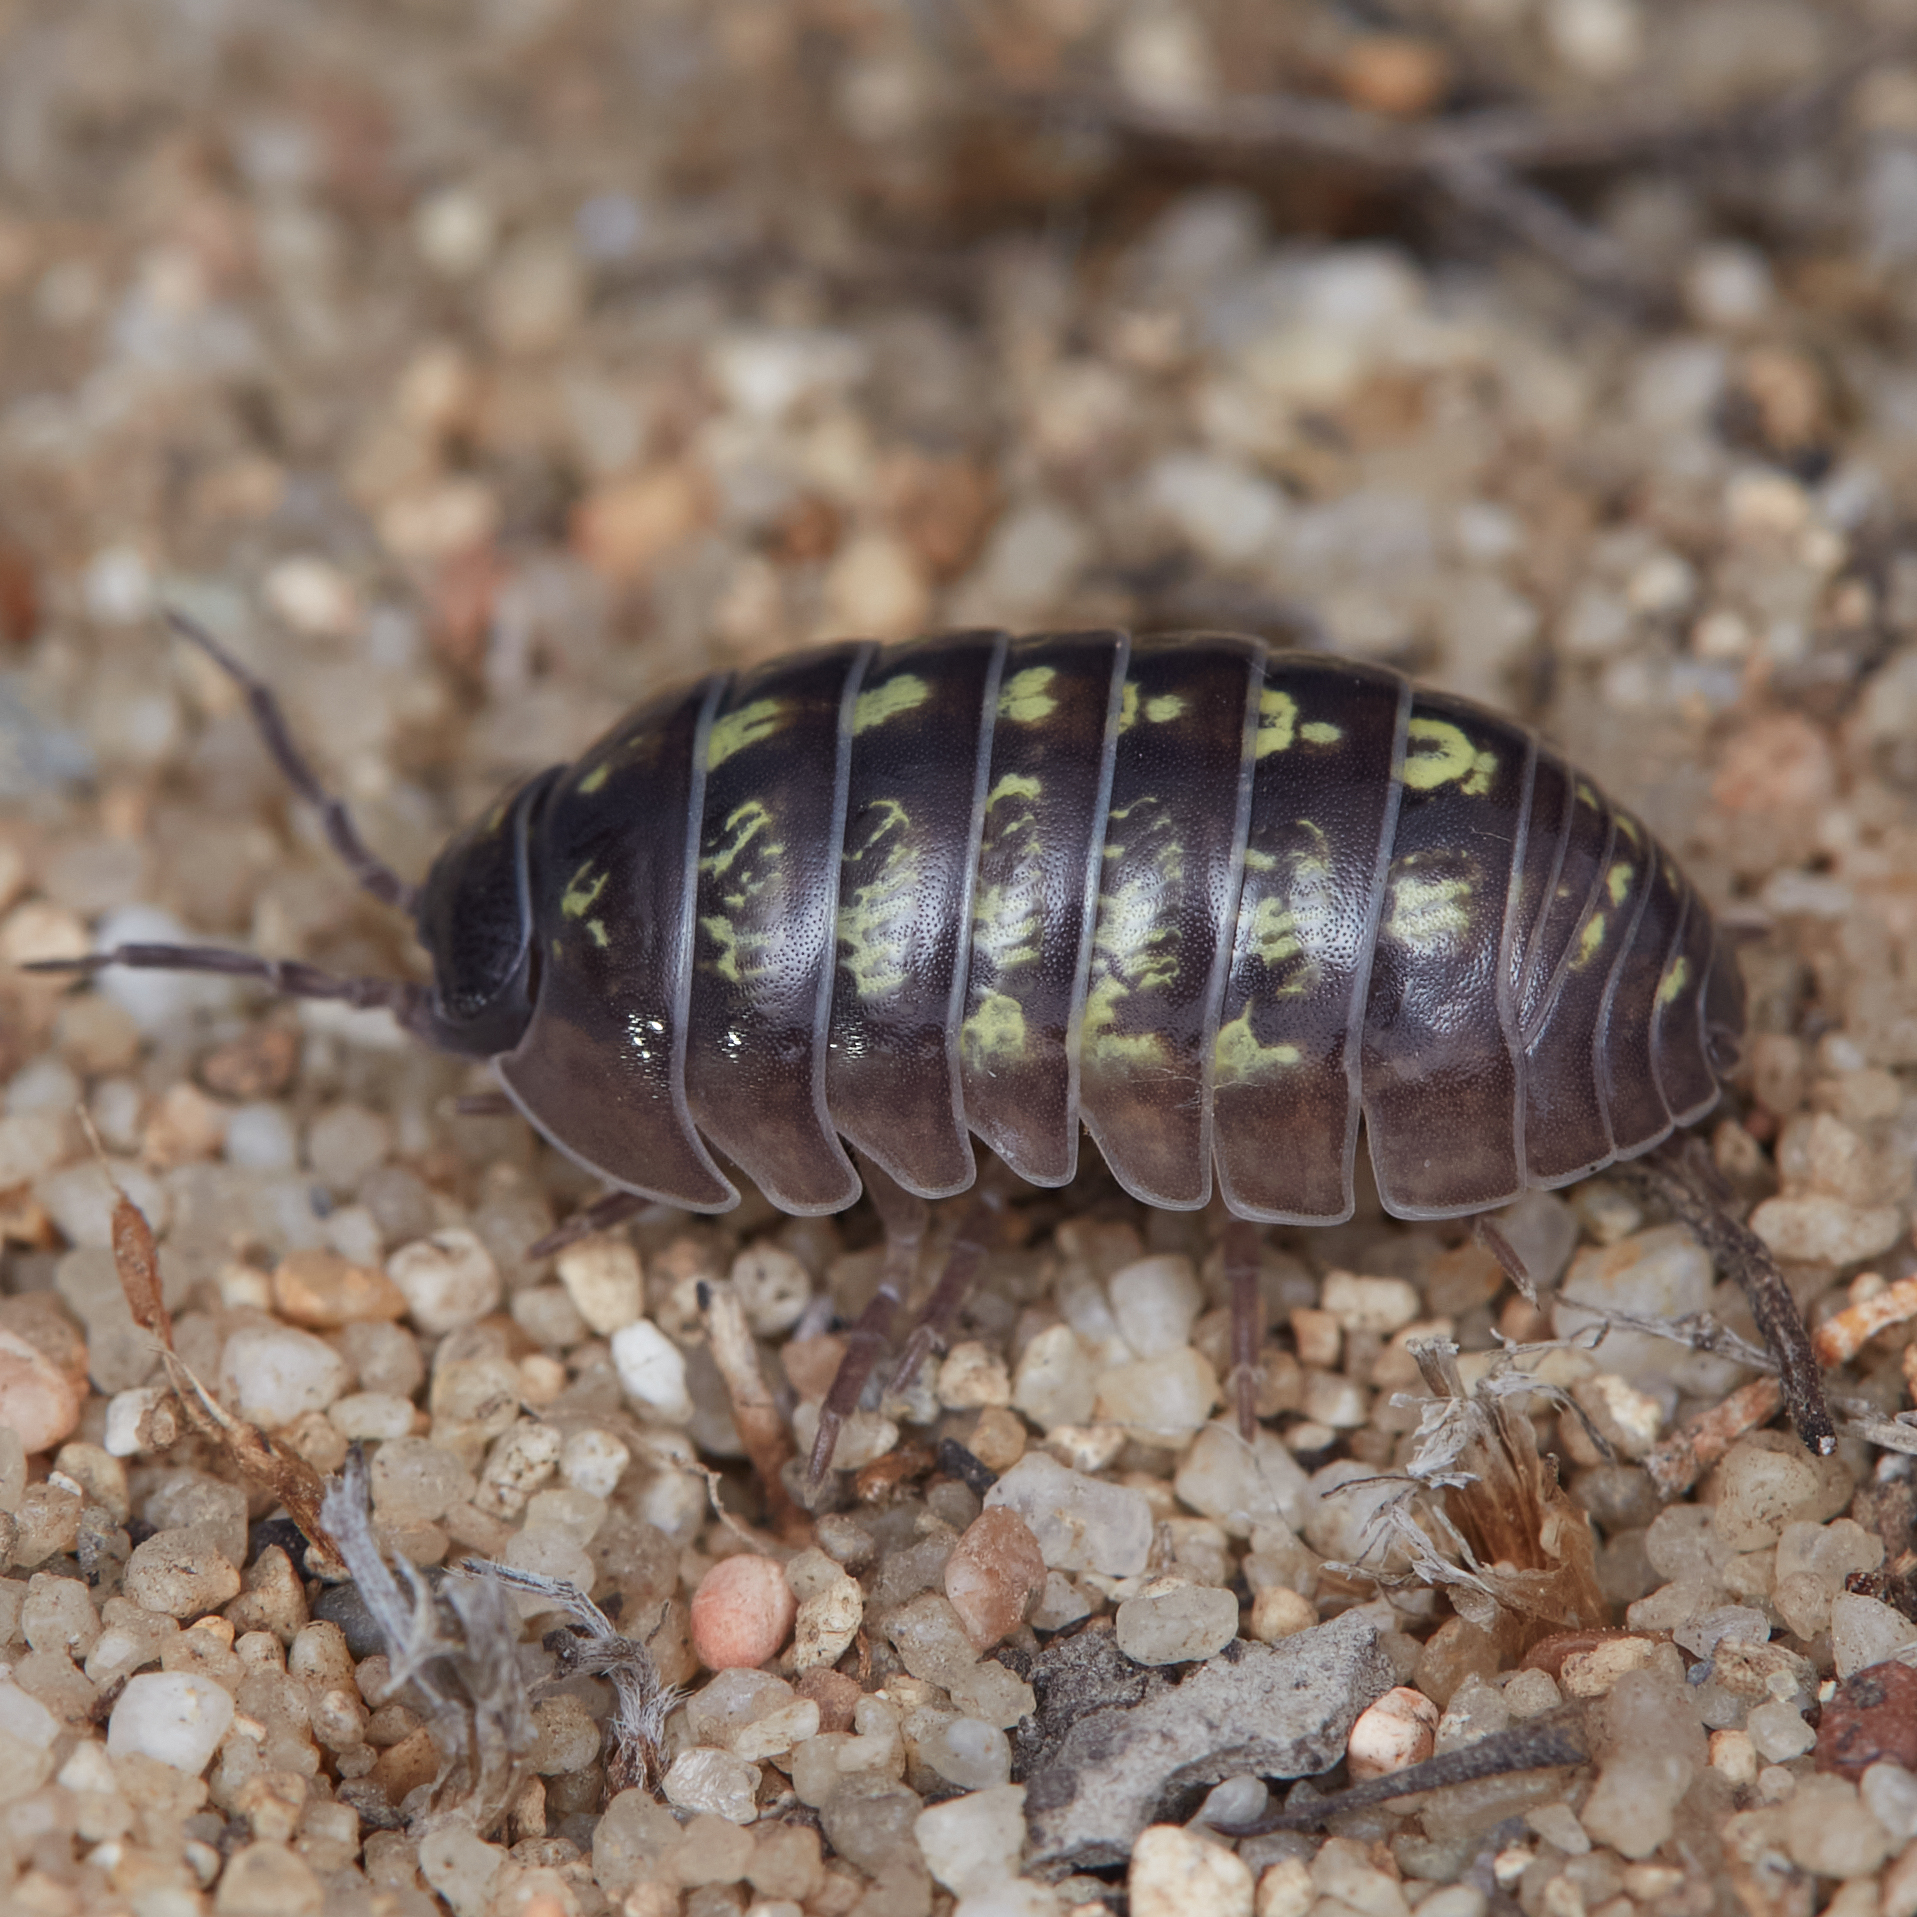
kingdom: Animalia
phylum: Arthropoda
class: Malacostraca
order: Isopoda
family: Armadillidiidae
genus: Armadillidium
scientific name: Armadillidium vulgare
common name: Common pill woodlouse
